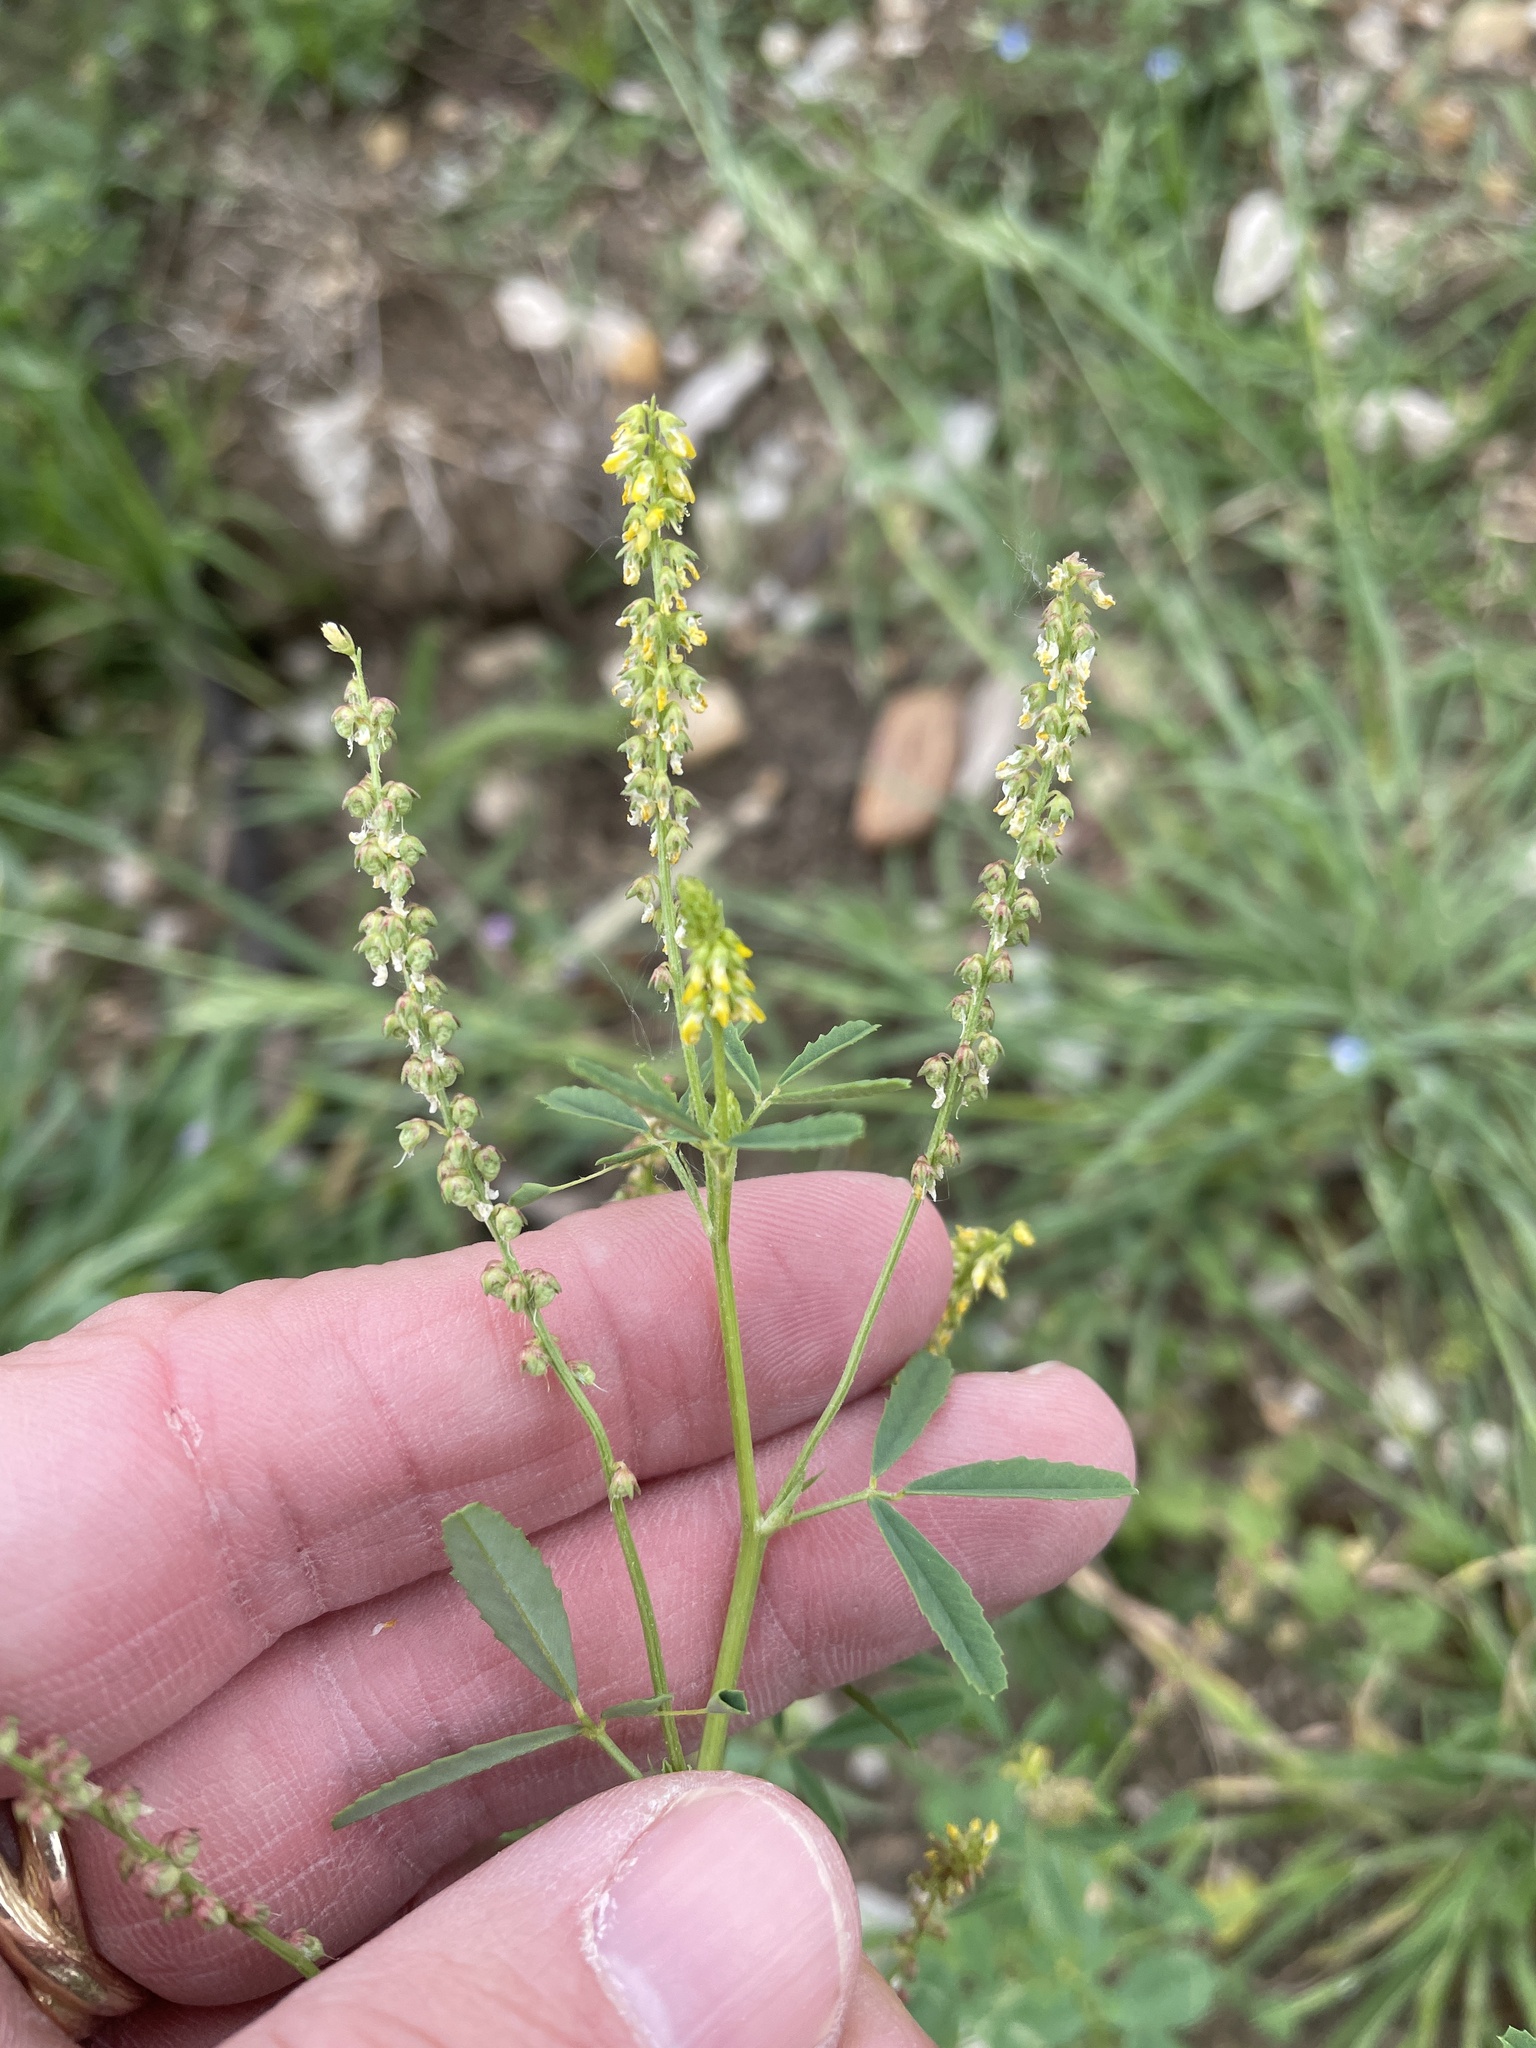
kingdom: Plantae
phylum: Tracheophyta
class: Magnoliopsida
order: Fabales
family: Fabaceae
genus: Melilotus
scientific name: Melilotus indicus
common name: Small melilot
